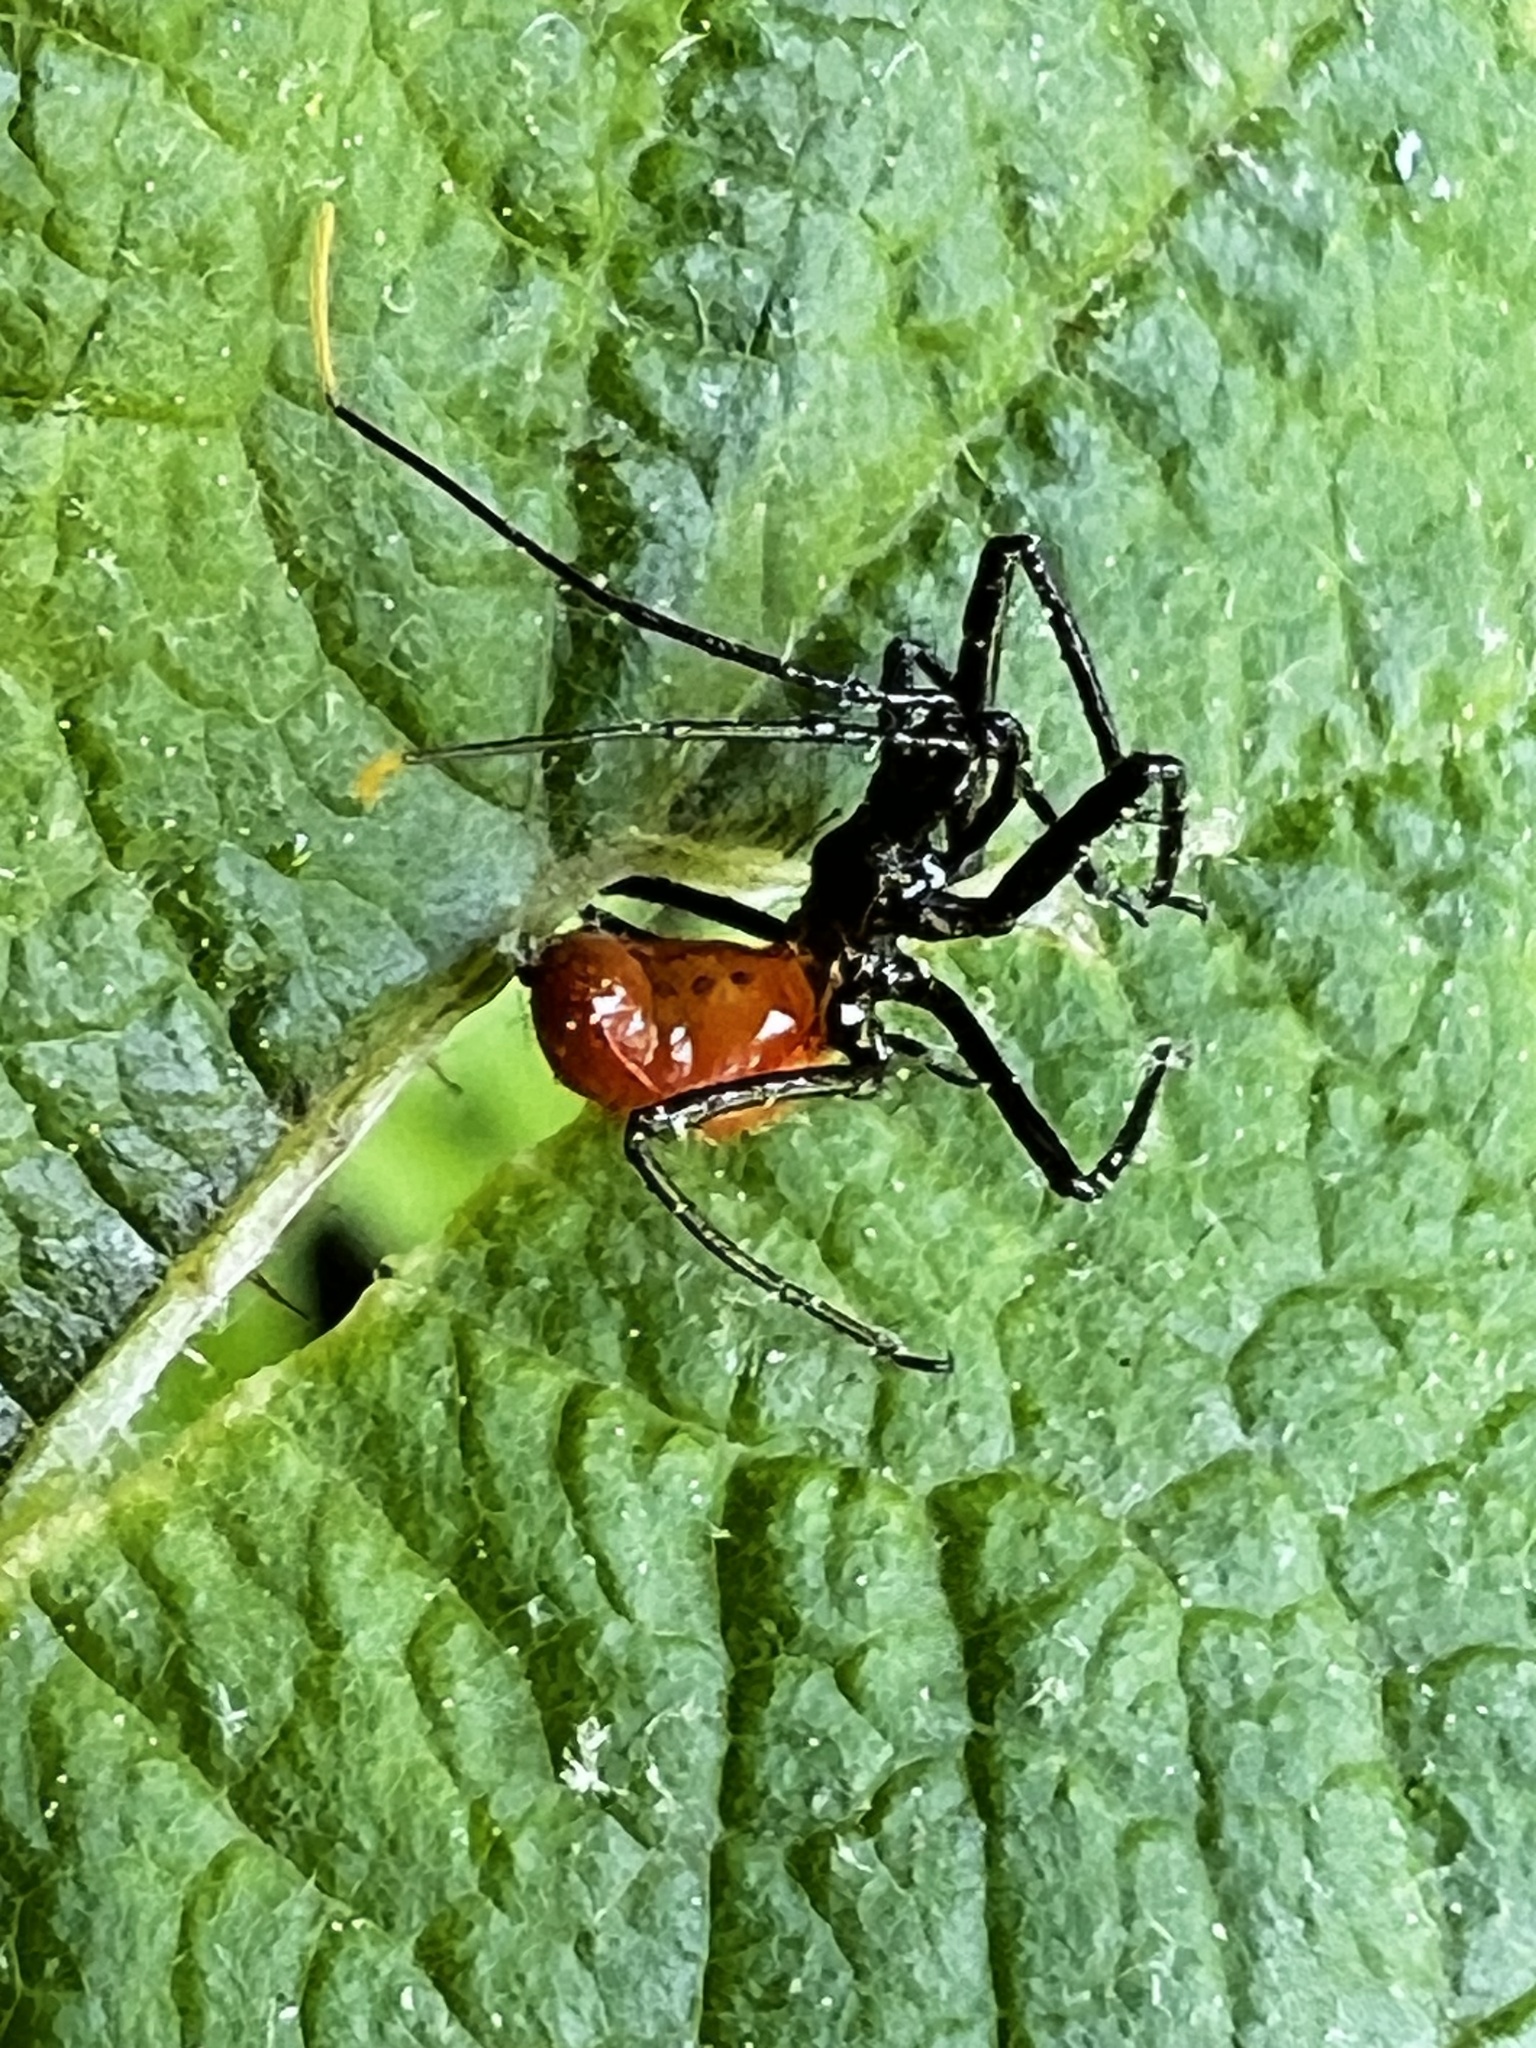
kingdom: Animalia
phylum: Arthropoda
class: Insecta
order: Hemiptera
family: Reduviidae
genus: Arilus
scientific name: Arilus cristatus
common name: North american wheel bug
